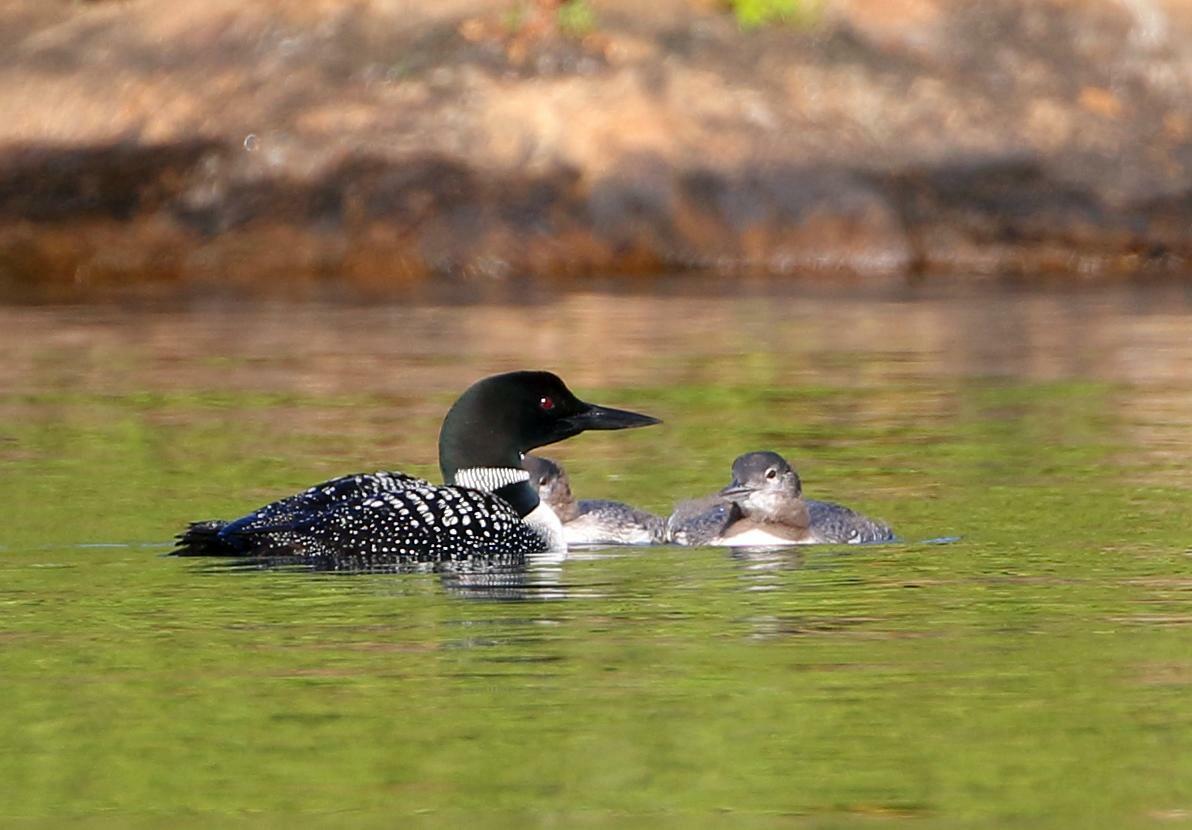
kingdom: Animalia
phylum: Chordata
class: Aves
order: Gaviiformes
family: Gaviidae
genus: Gavia
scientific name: Gavia immer
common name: Common loon
